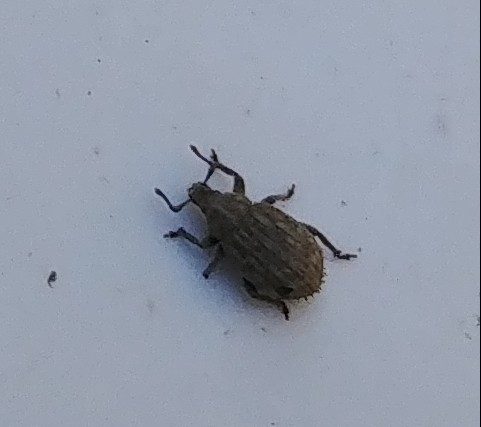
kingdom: Animalia
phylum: Arthropoda
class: Insecta
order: Coleoptera
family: Curculionidae
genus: Romualdius
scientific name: Romualdius scaber
